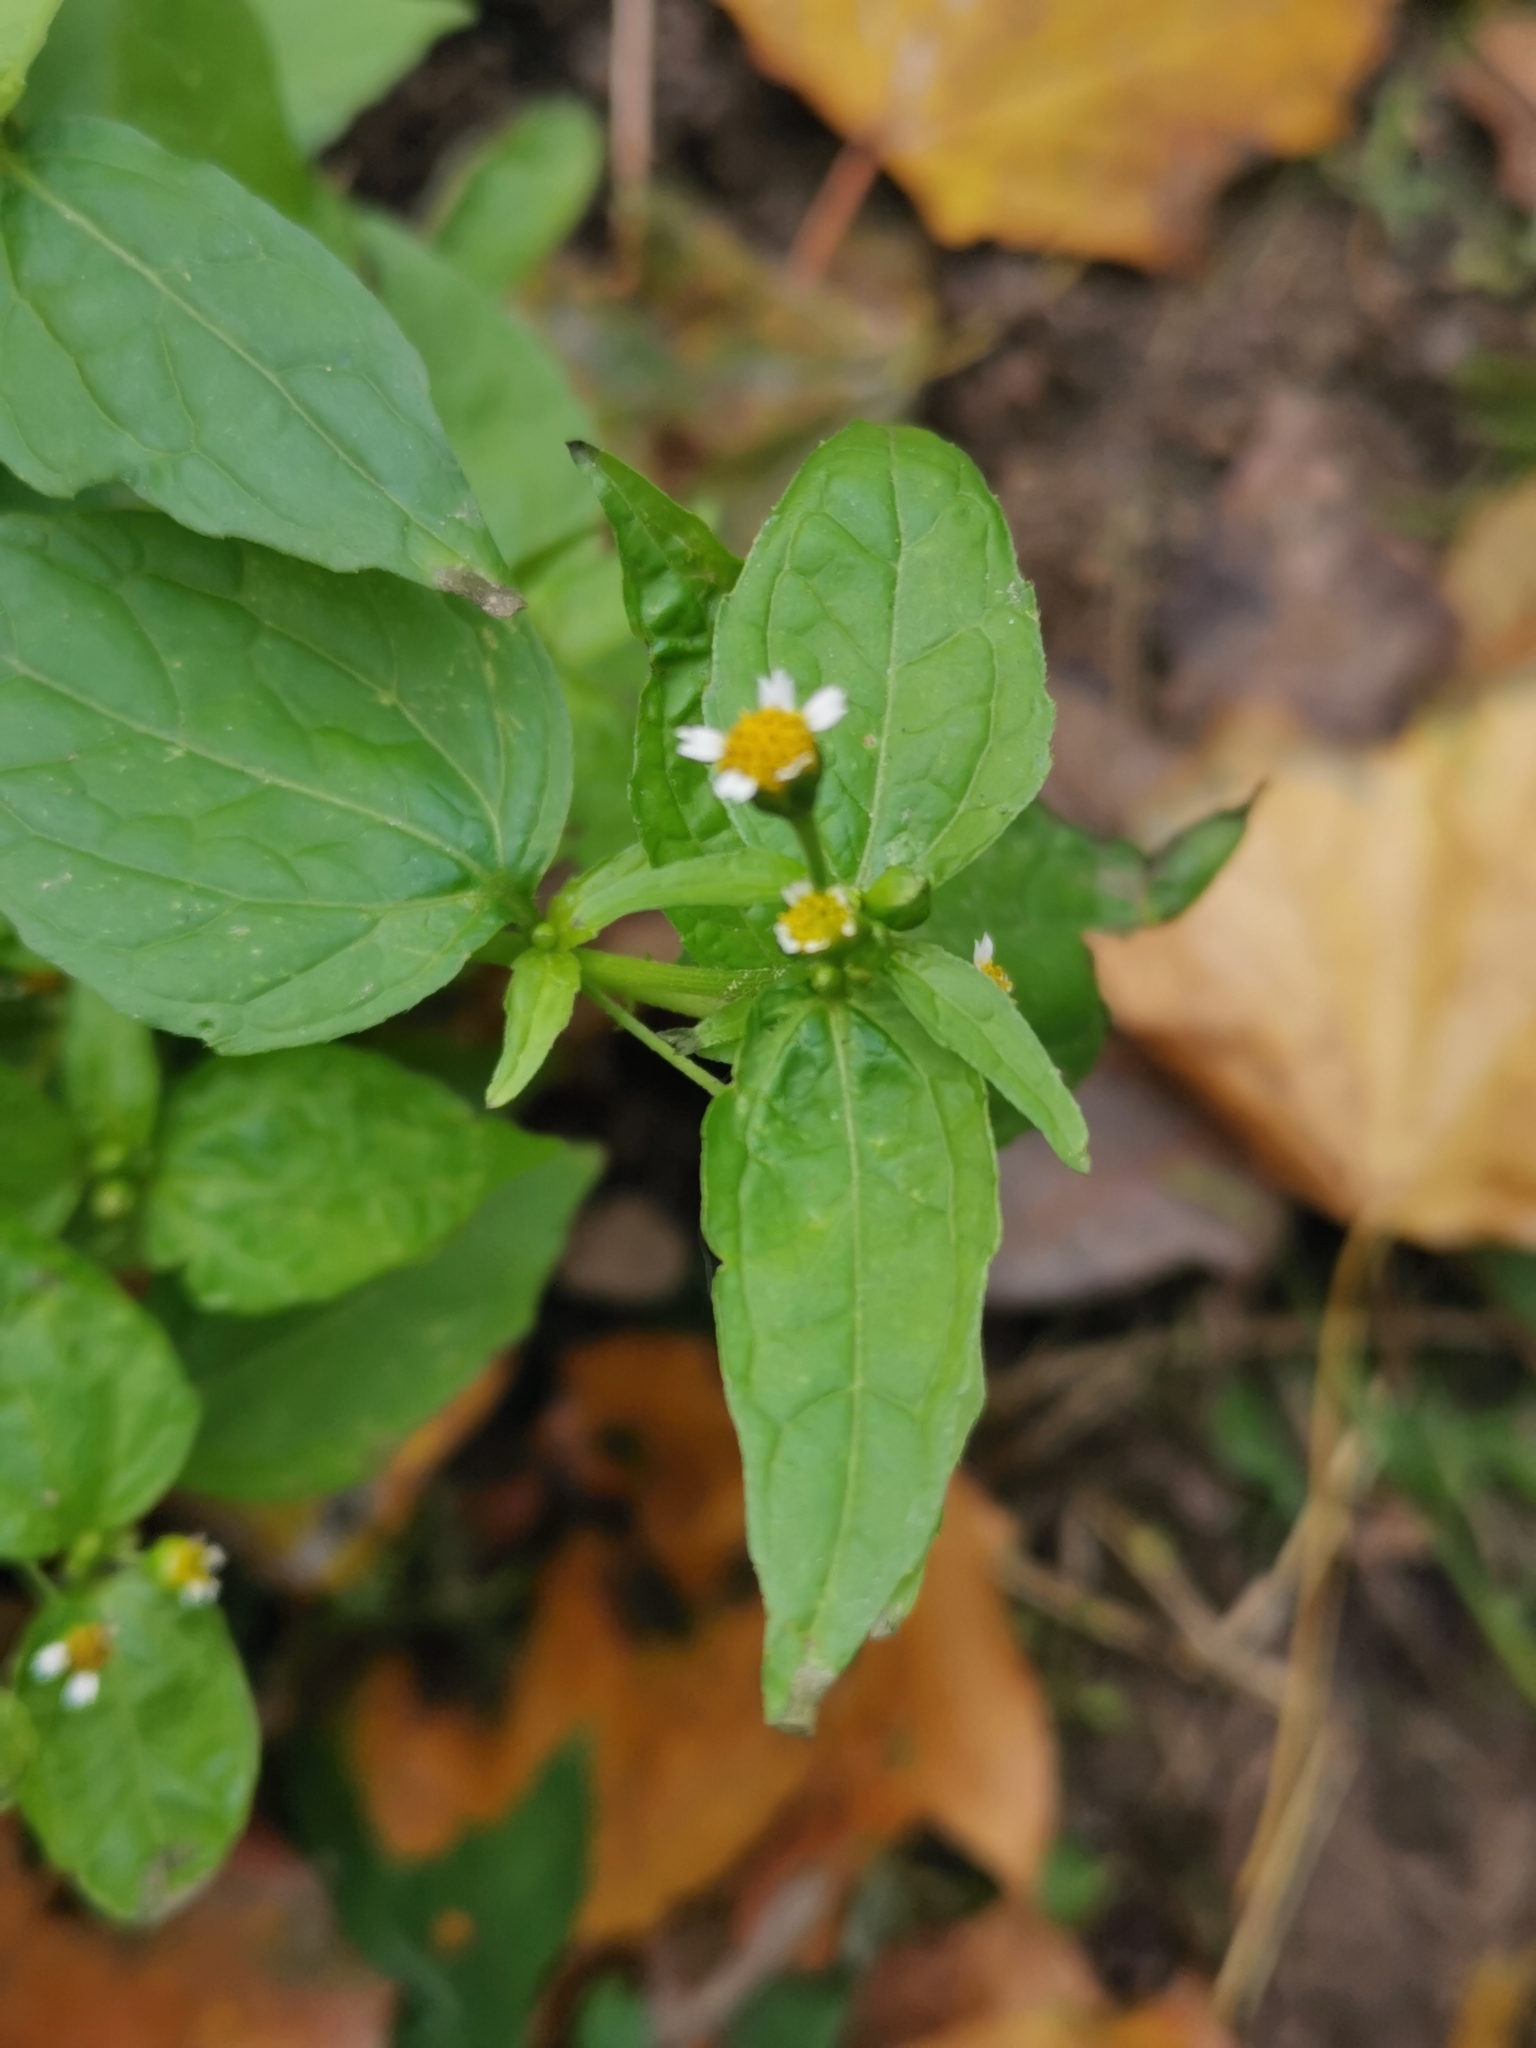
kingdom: Plantae
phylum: Tracheophyta
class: Magnoliopsida
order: Asterales
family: Asteraceae
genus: Galinsoga
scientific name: Galinsoga parviflora
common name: Gallant soldier
